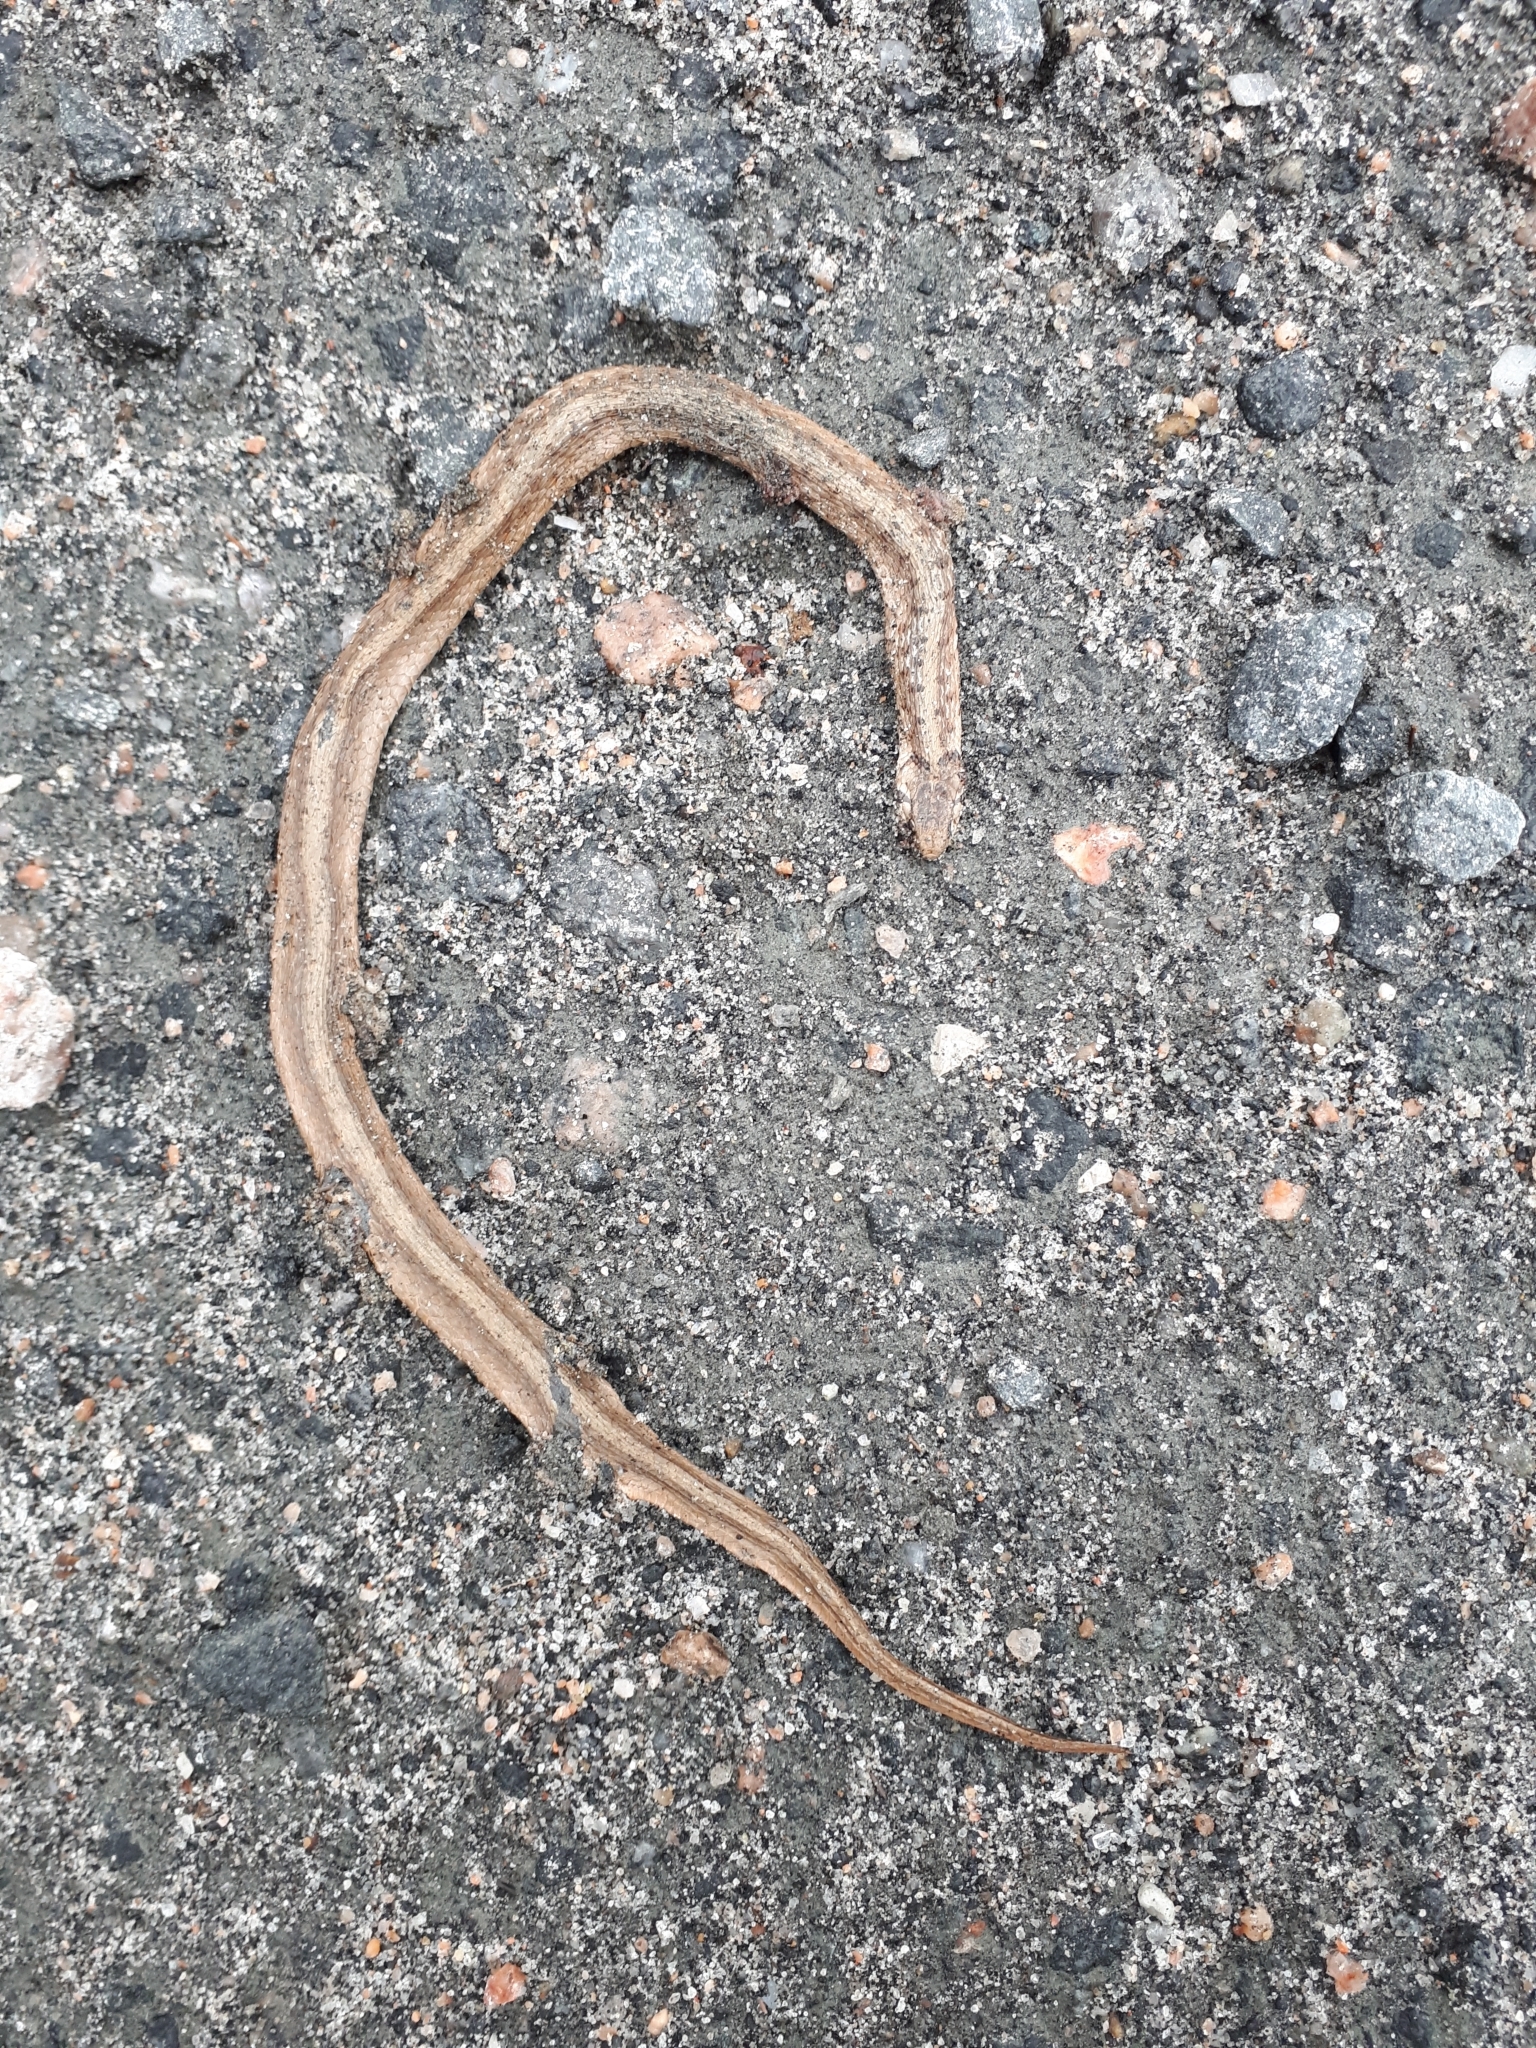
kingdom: Animalia
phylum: Chordata
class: Squamata
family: Colubridae
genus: Storeria
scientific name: Storeria dekayi
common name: (dekay’s) brown snake
